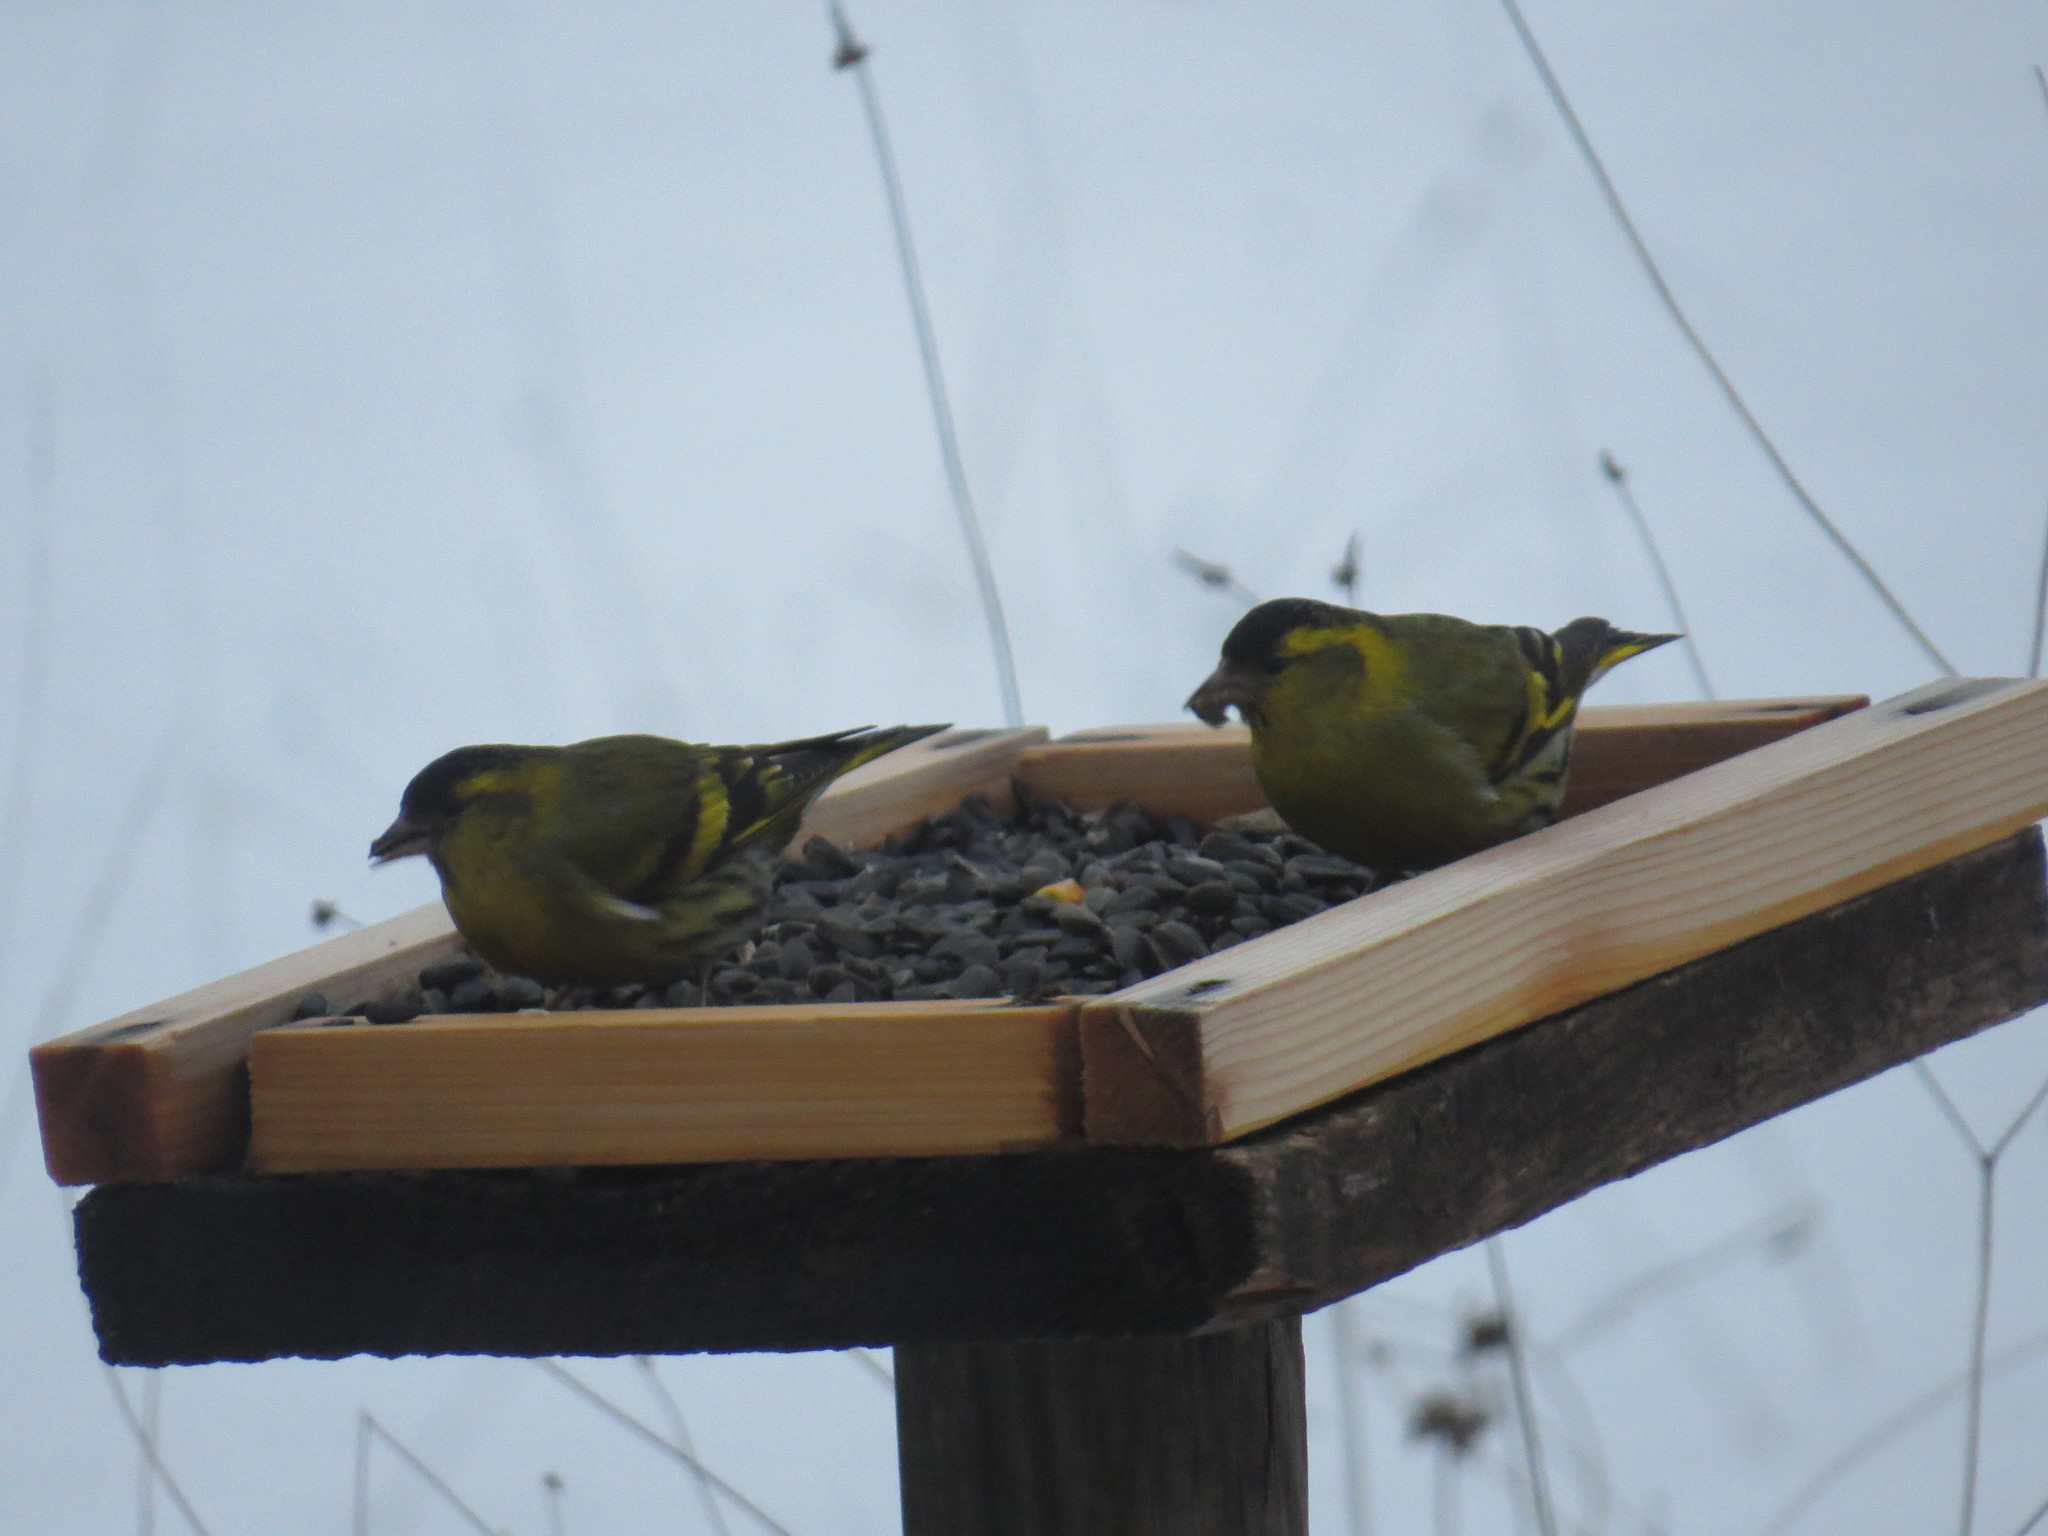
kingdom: Animalia
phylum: Chordata
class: Aves
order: Passeriformes
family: Fringillidae
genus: Spinus
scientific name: Spinus spinus
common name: Eurasian siskin
